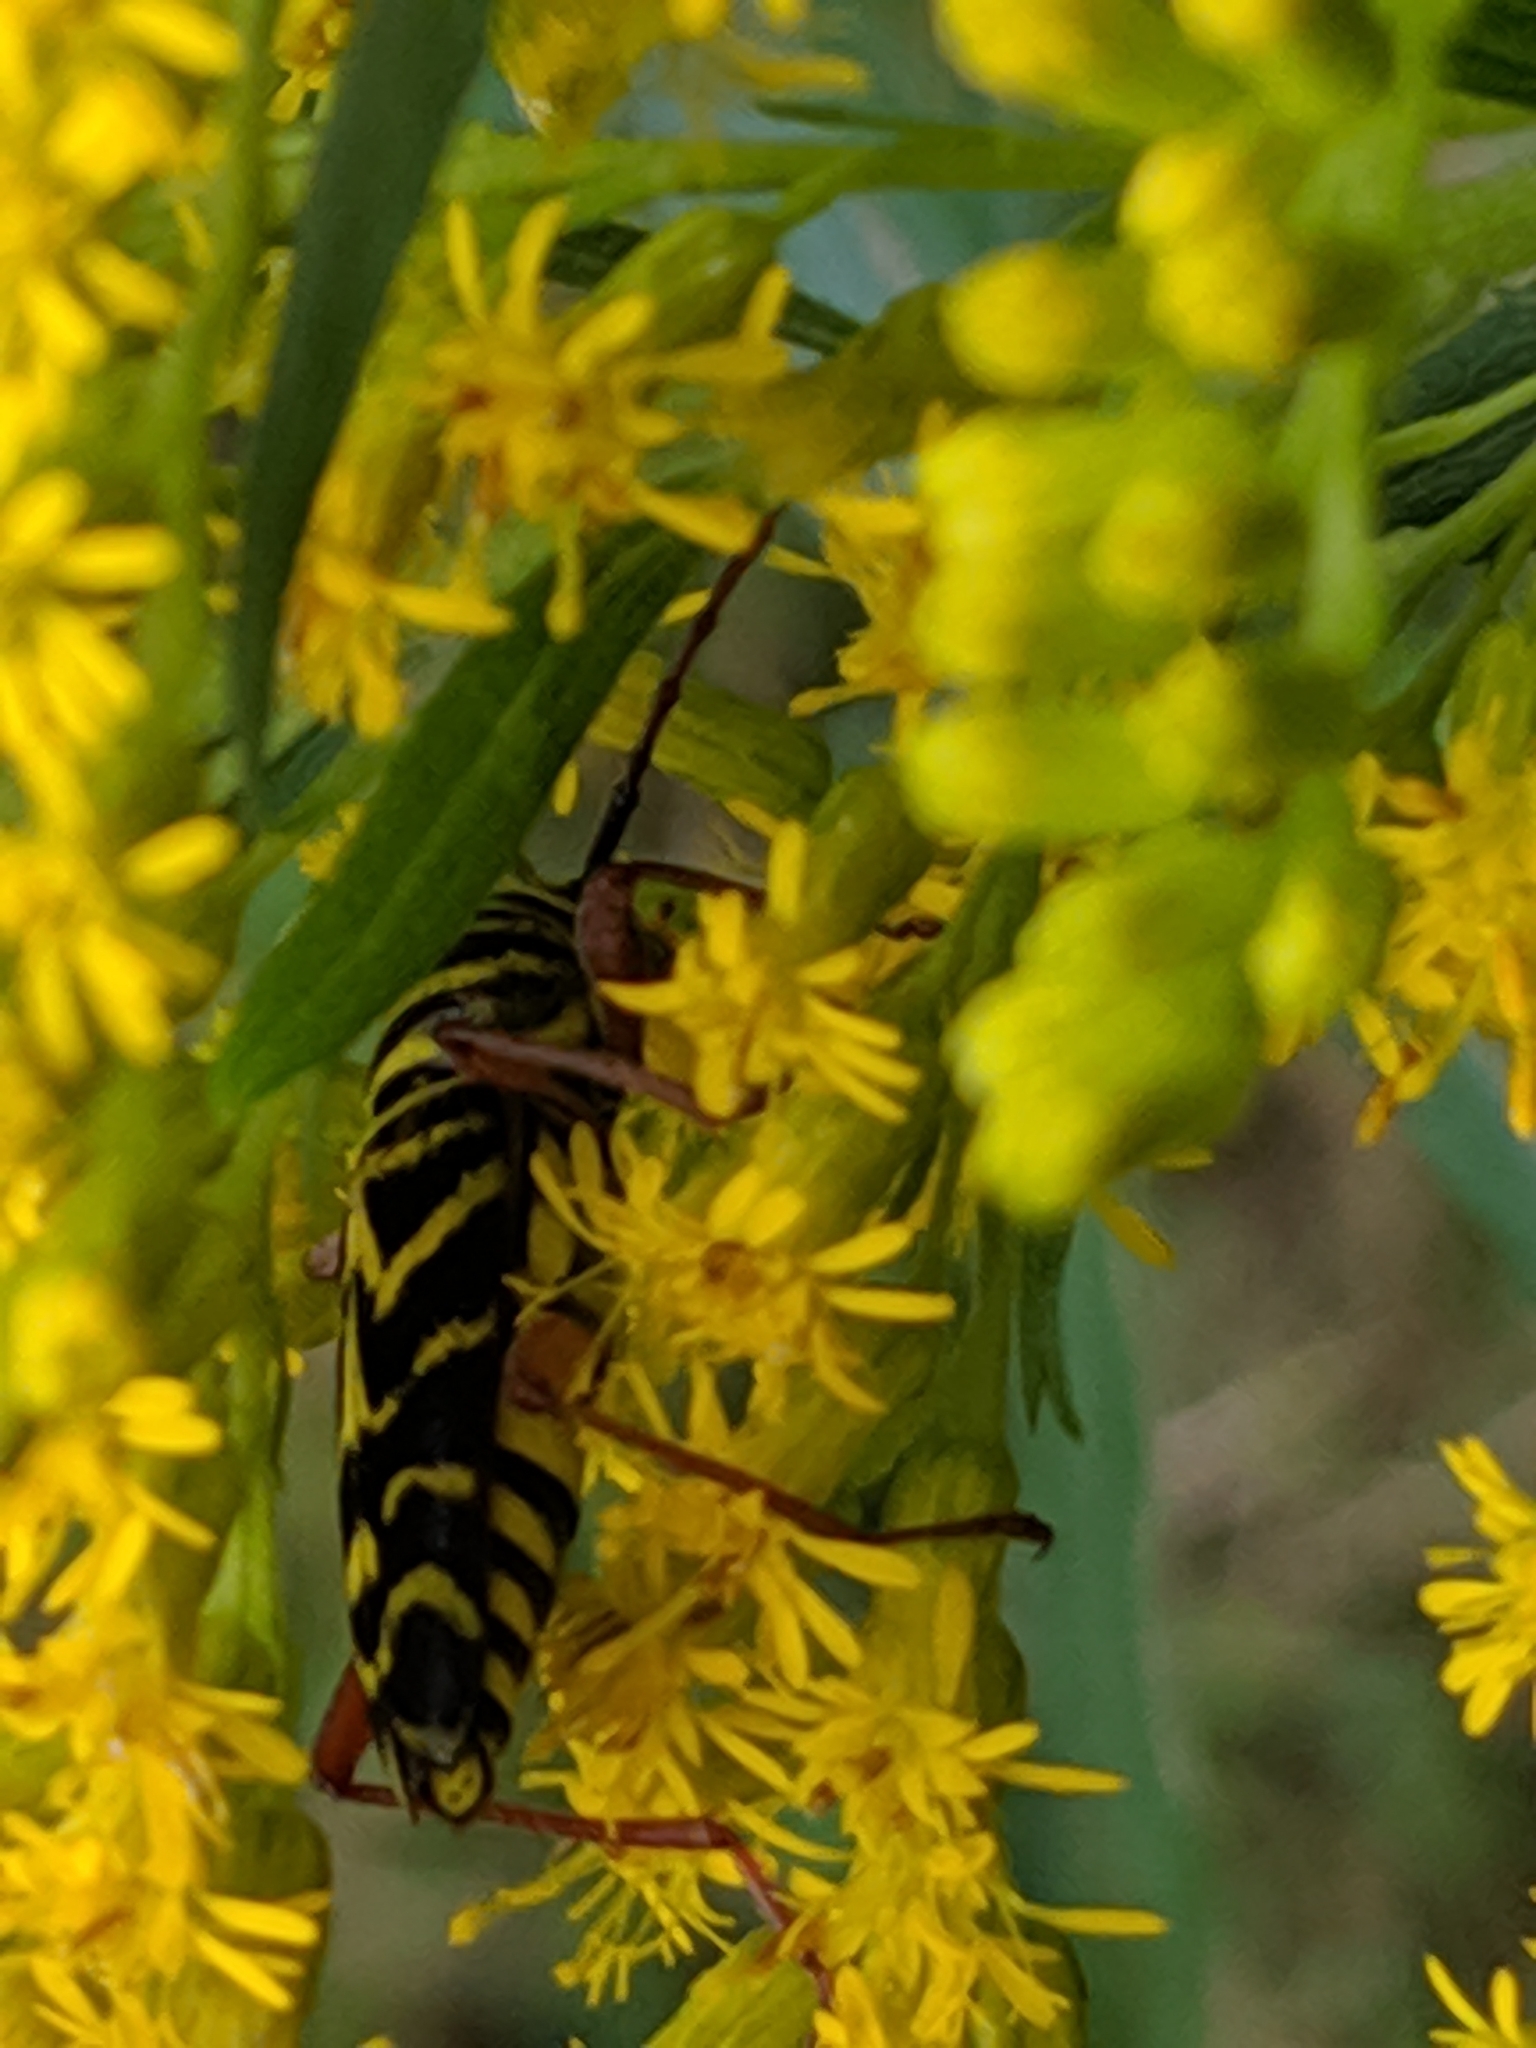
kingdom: Animalia
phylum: Arthropoda
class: Insecta
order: Coleoptera
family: Cerambycidae
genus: Megacyllene
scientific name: Megacyllene robiniae
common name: Locust borer
